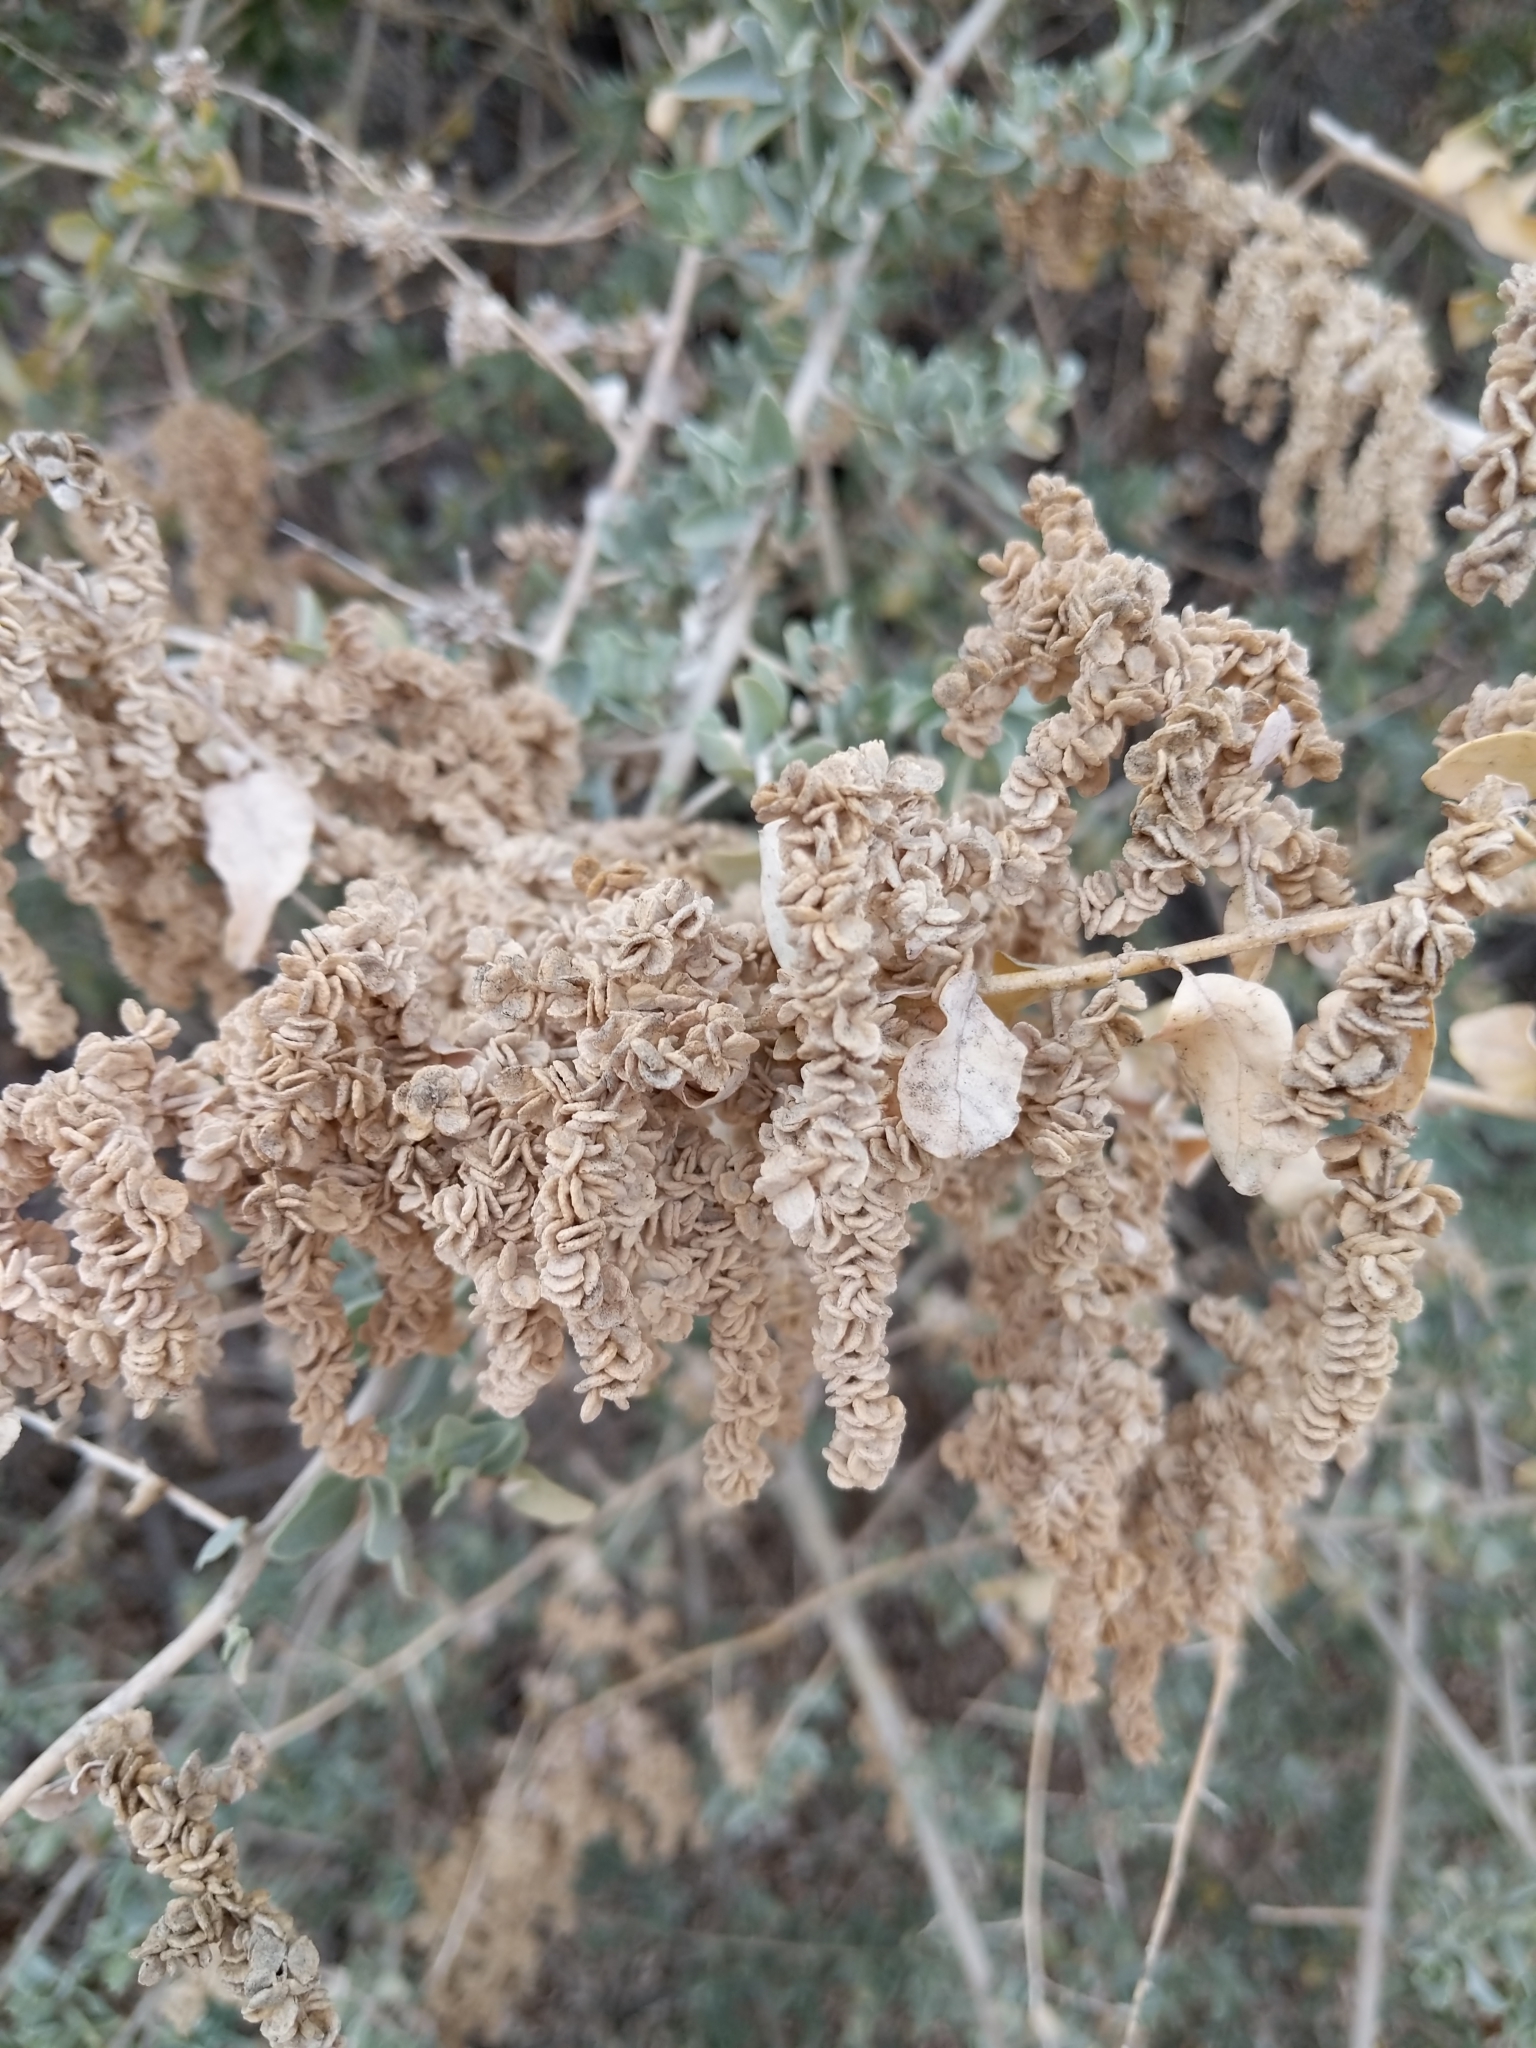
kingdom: Plantae
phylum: Tracheophyta
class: Magnoliopsida
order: Caryophyllales
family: Amaranthaceae
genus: Atriplex
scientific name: Atriplex lentiformis
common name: Big saltbush
